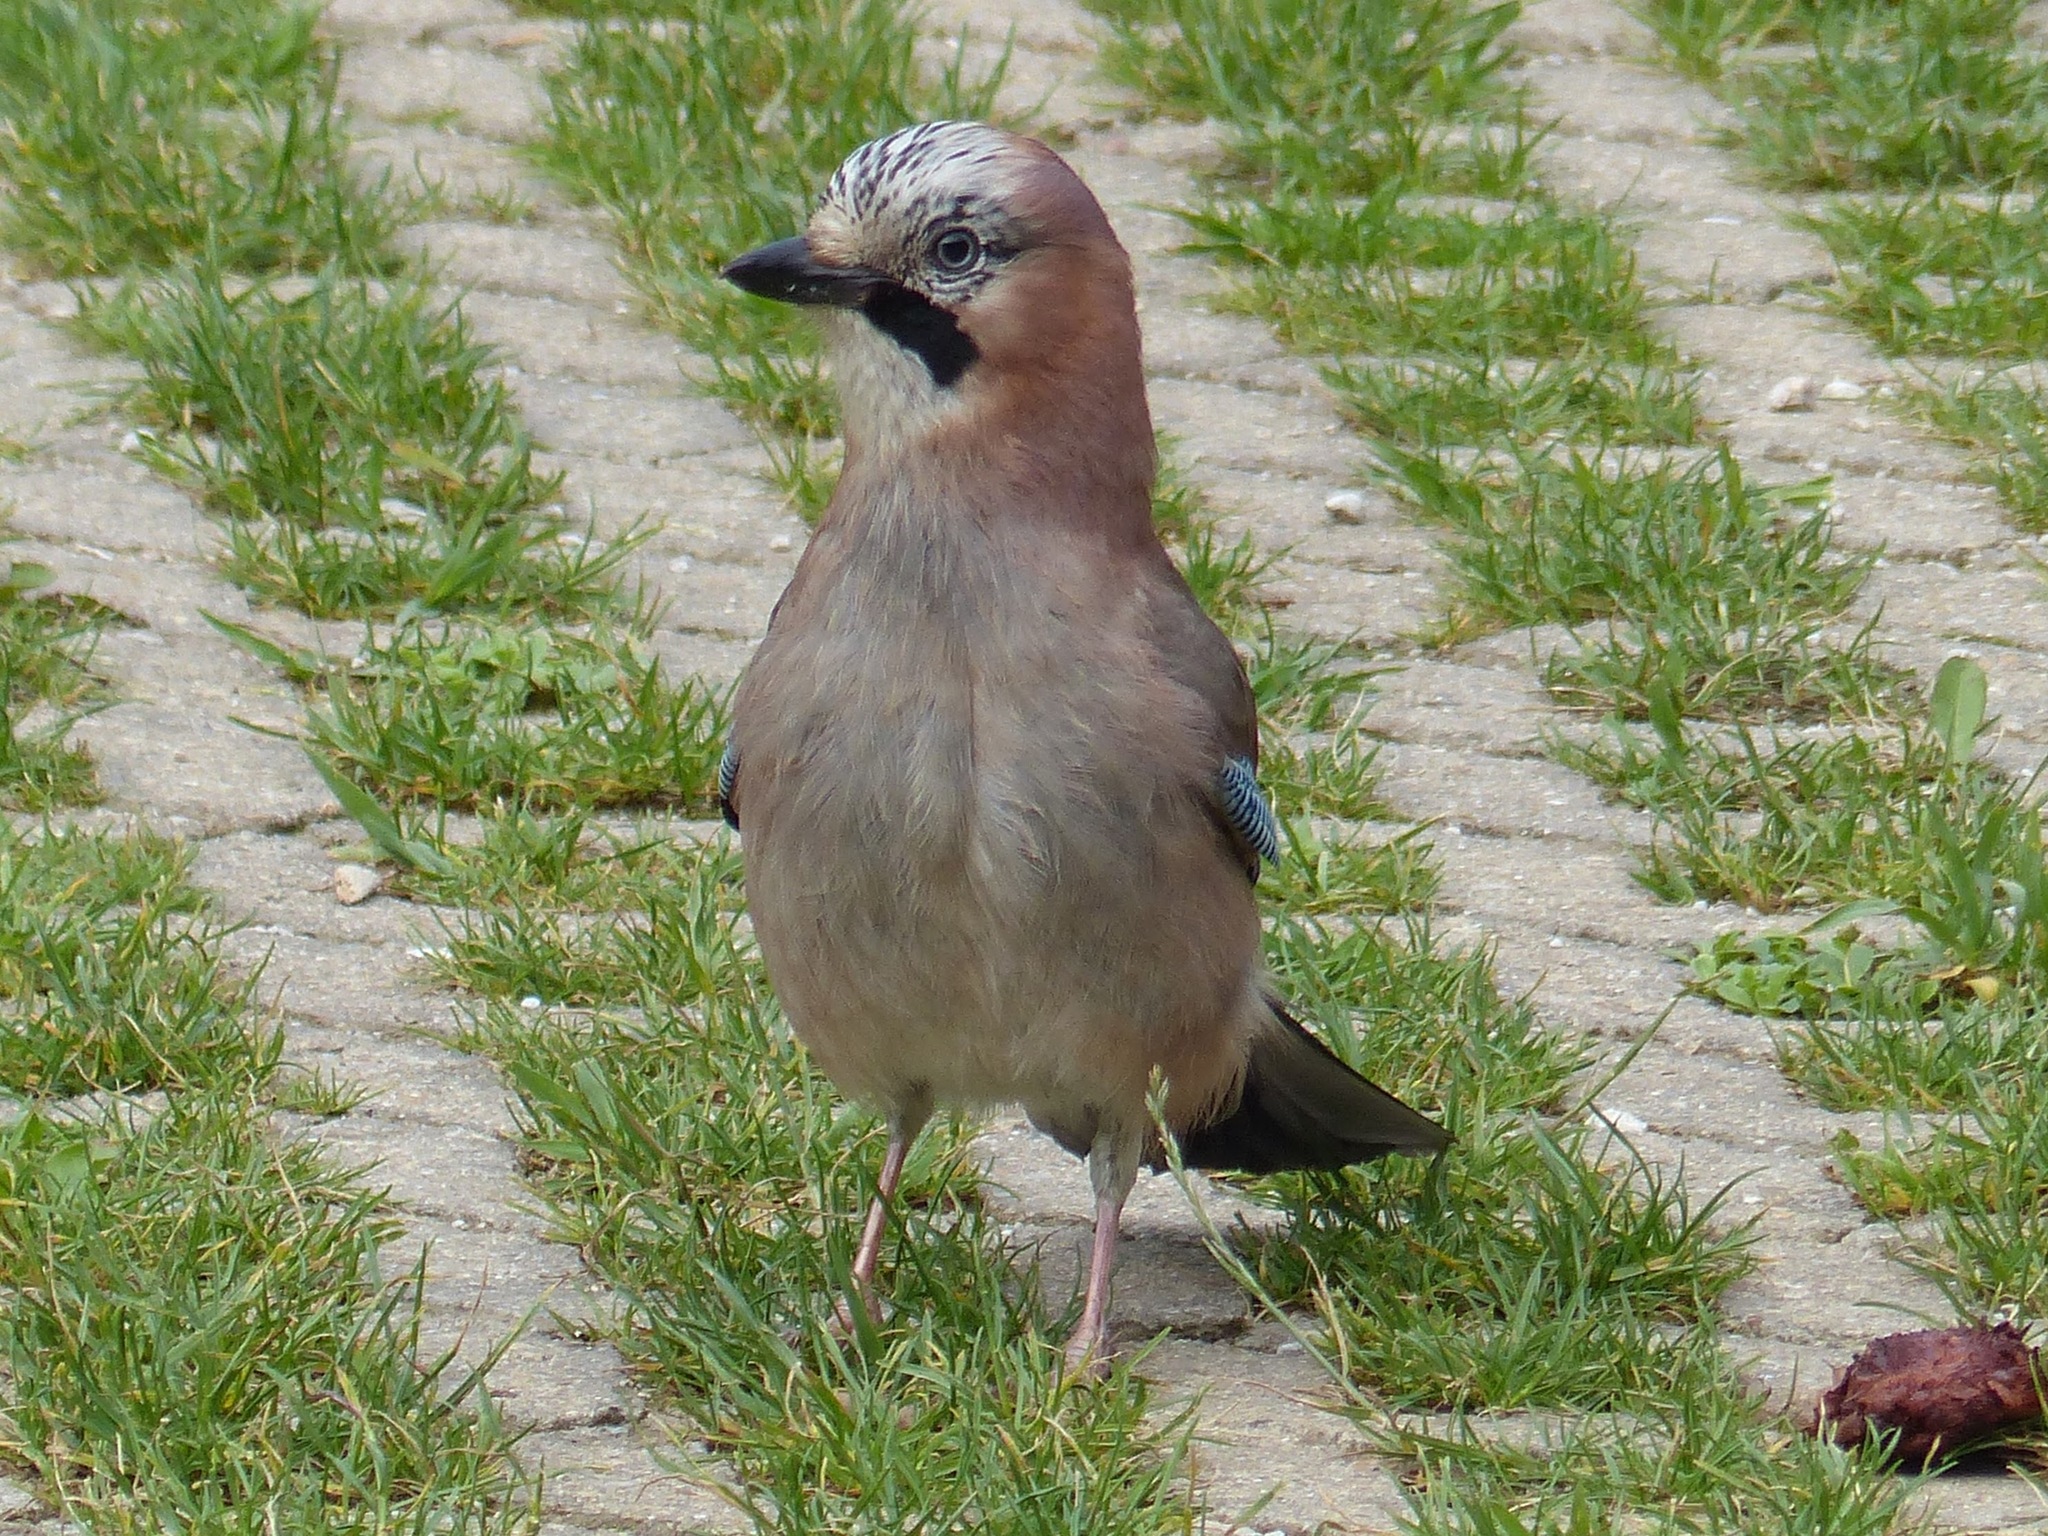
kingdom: Animalia
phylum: Chordata
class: Aves
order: Passeriformes
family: Corvidae
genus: Garrulus
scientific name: Garrulus glandarius
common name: Eurasian jay
